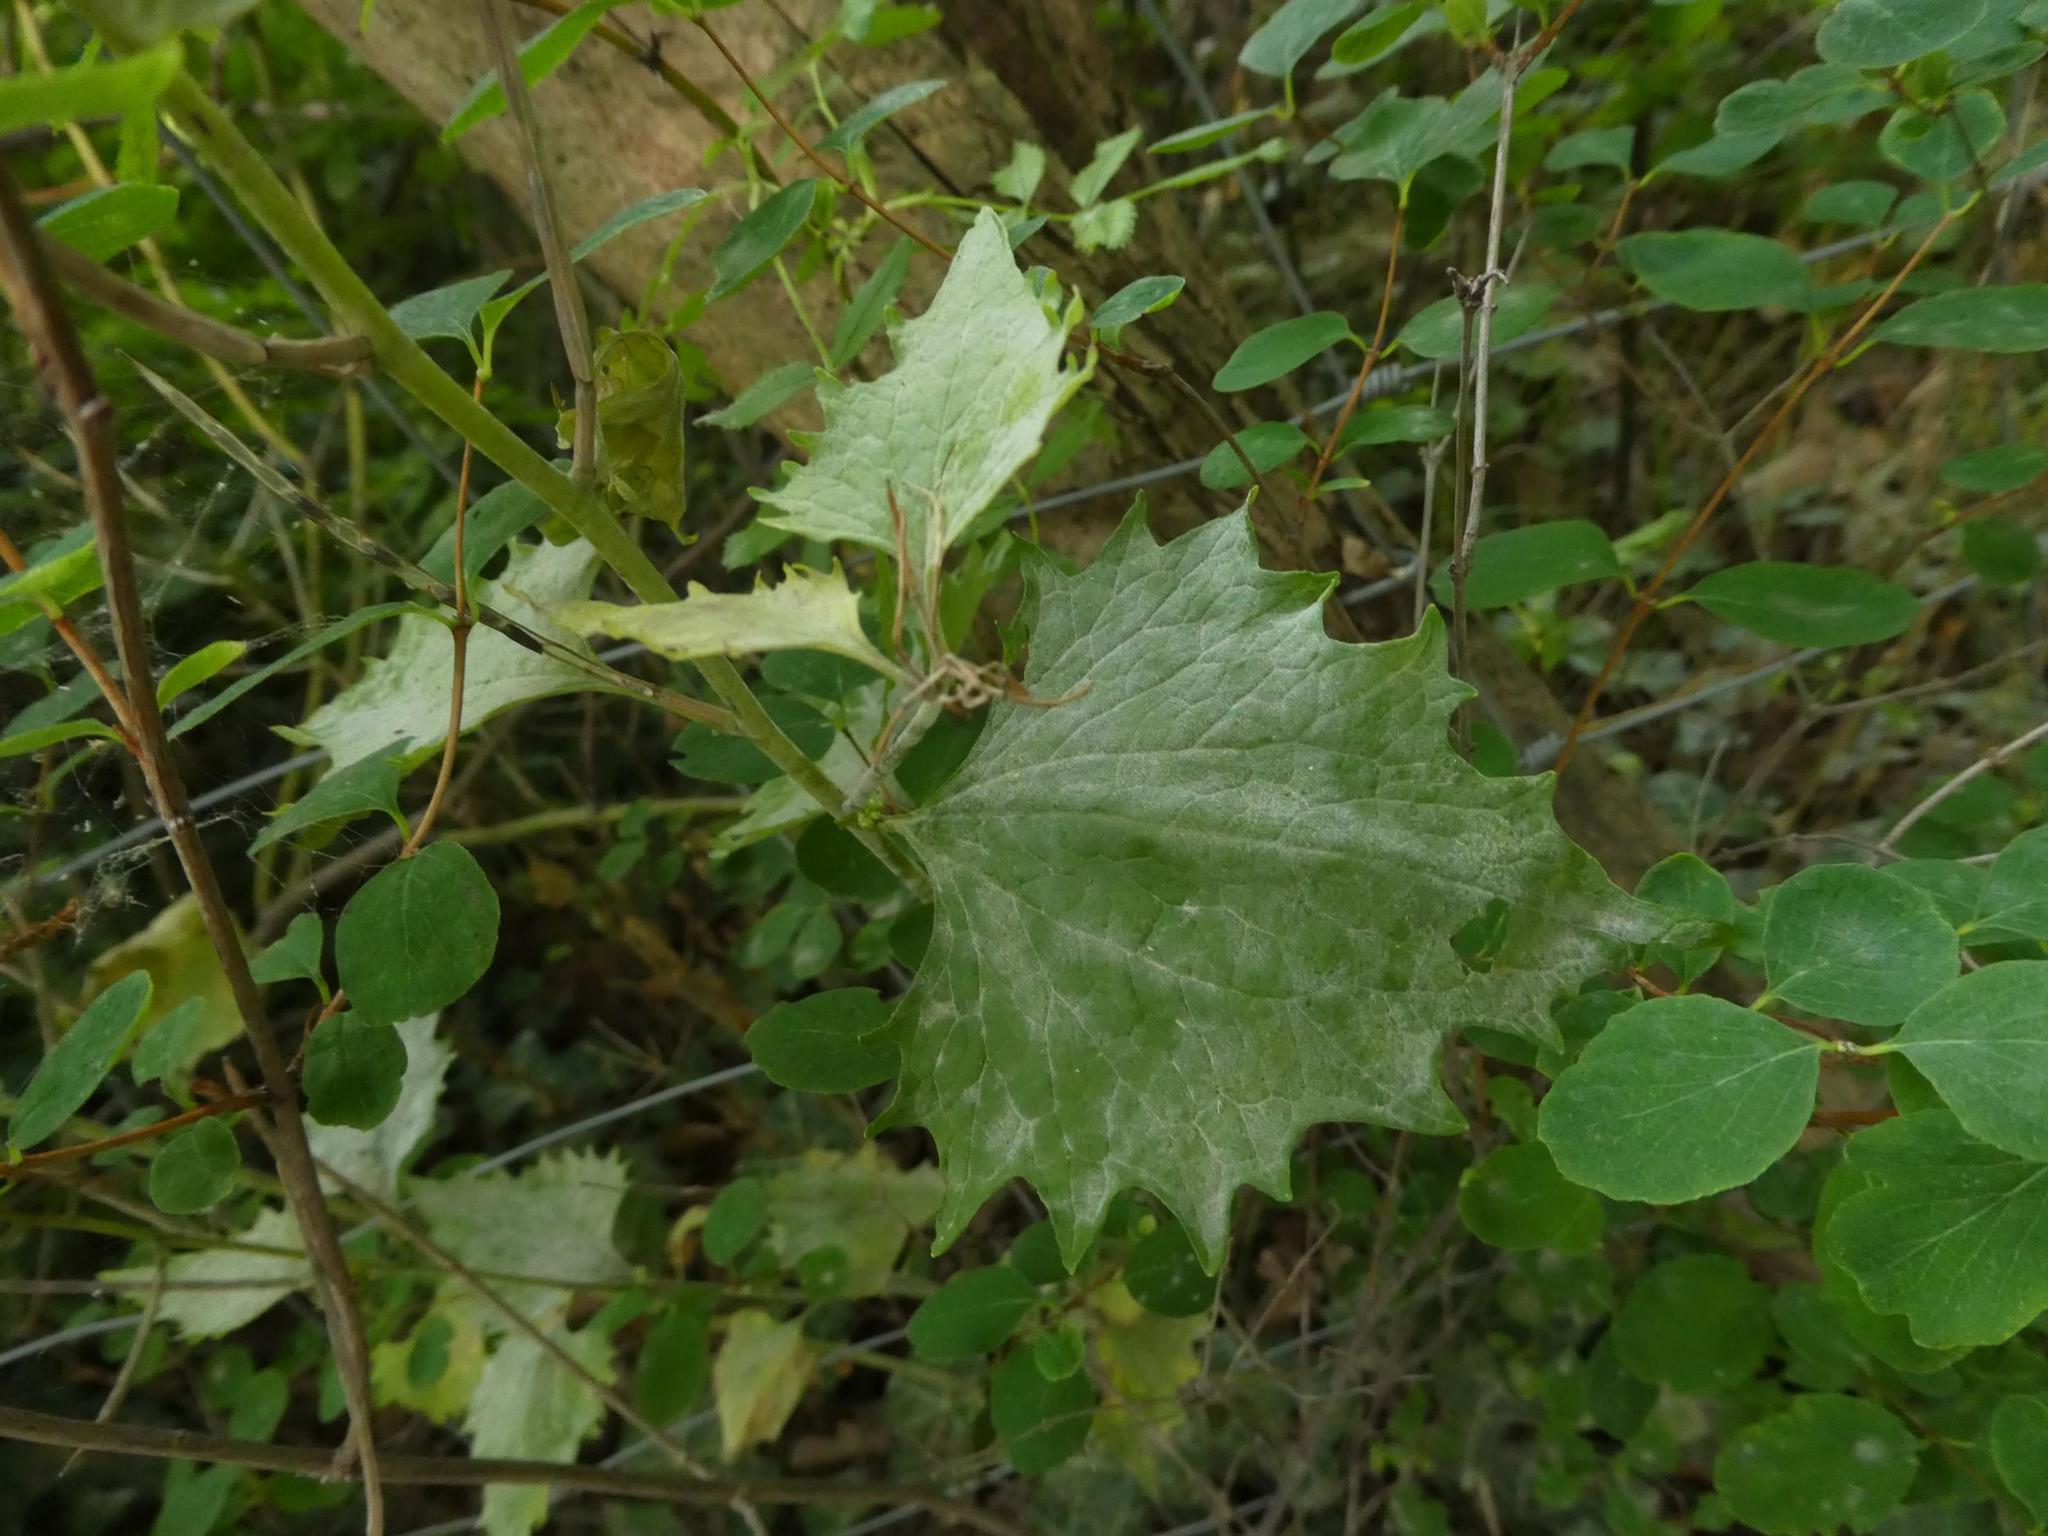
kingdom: Plantae
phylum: Tracheophyta
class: Magnoliopsida
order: Brassicales
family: Brassicaceae
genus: Alliaria
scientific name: Alliaria petiolata
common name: Garlic mustard
